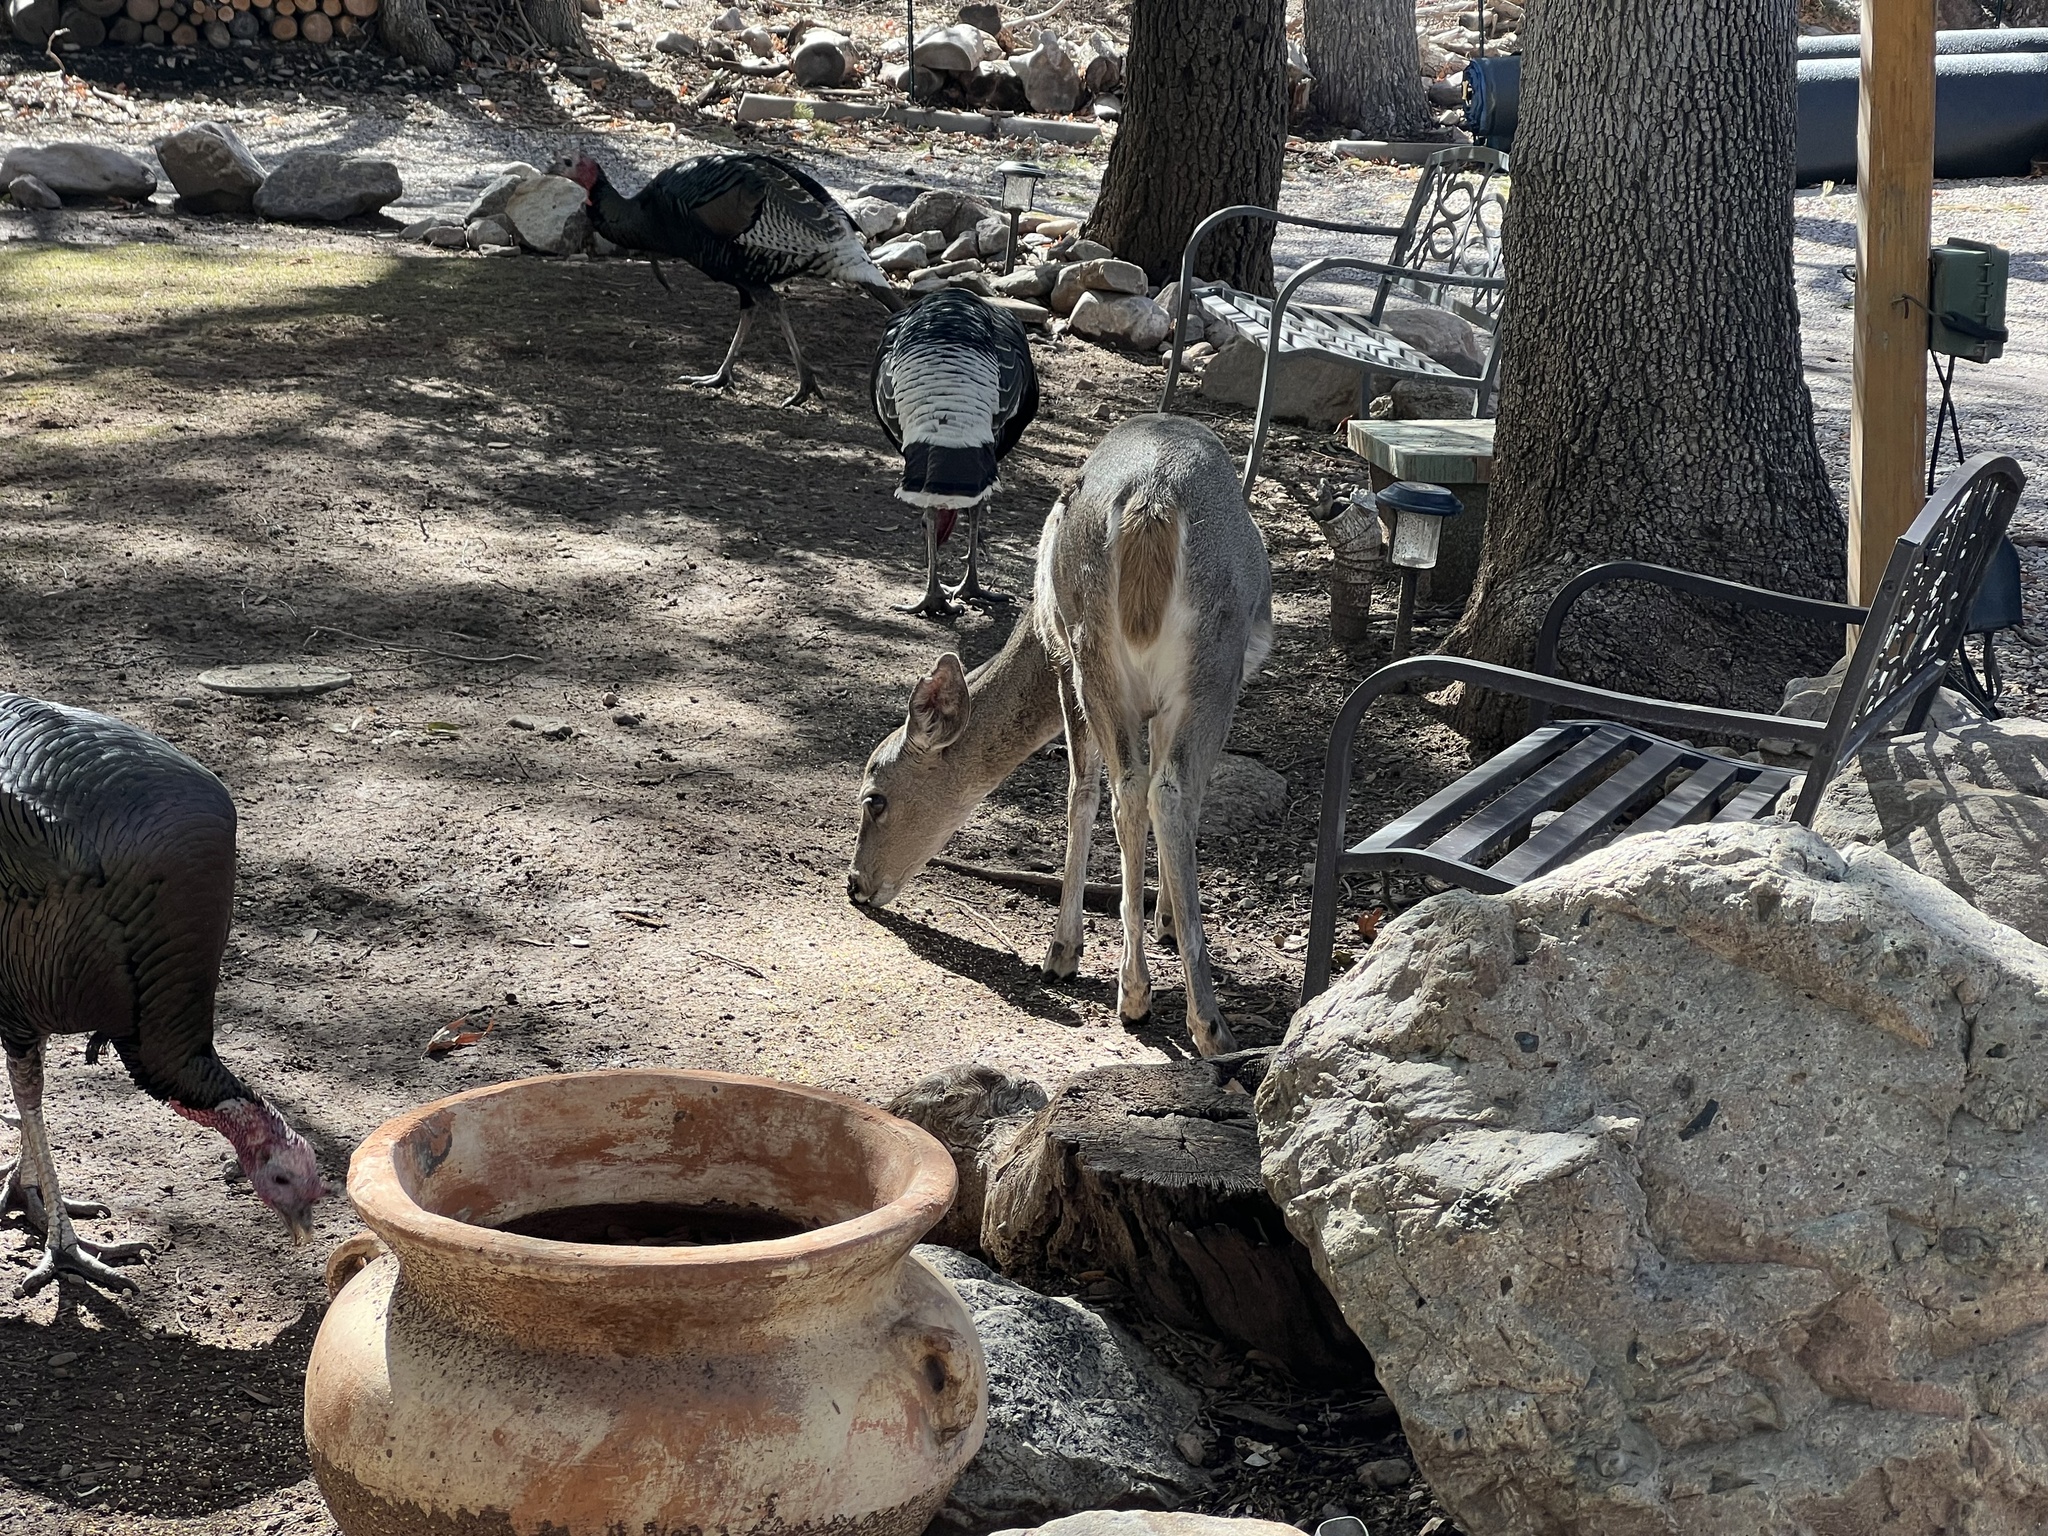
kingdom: Animalia
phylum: Chordata
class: Mammalia
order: Artiodactyla
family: Cervidae
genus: Odocoileus
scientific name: Odocoileus virginianus
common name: White-tailed deer
